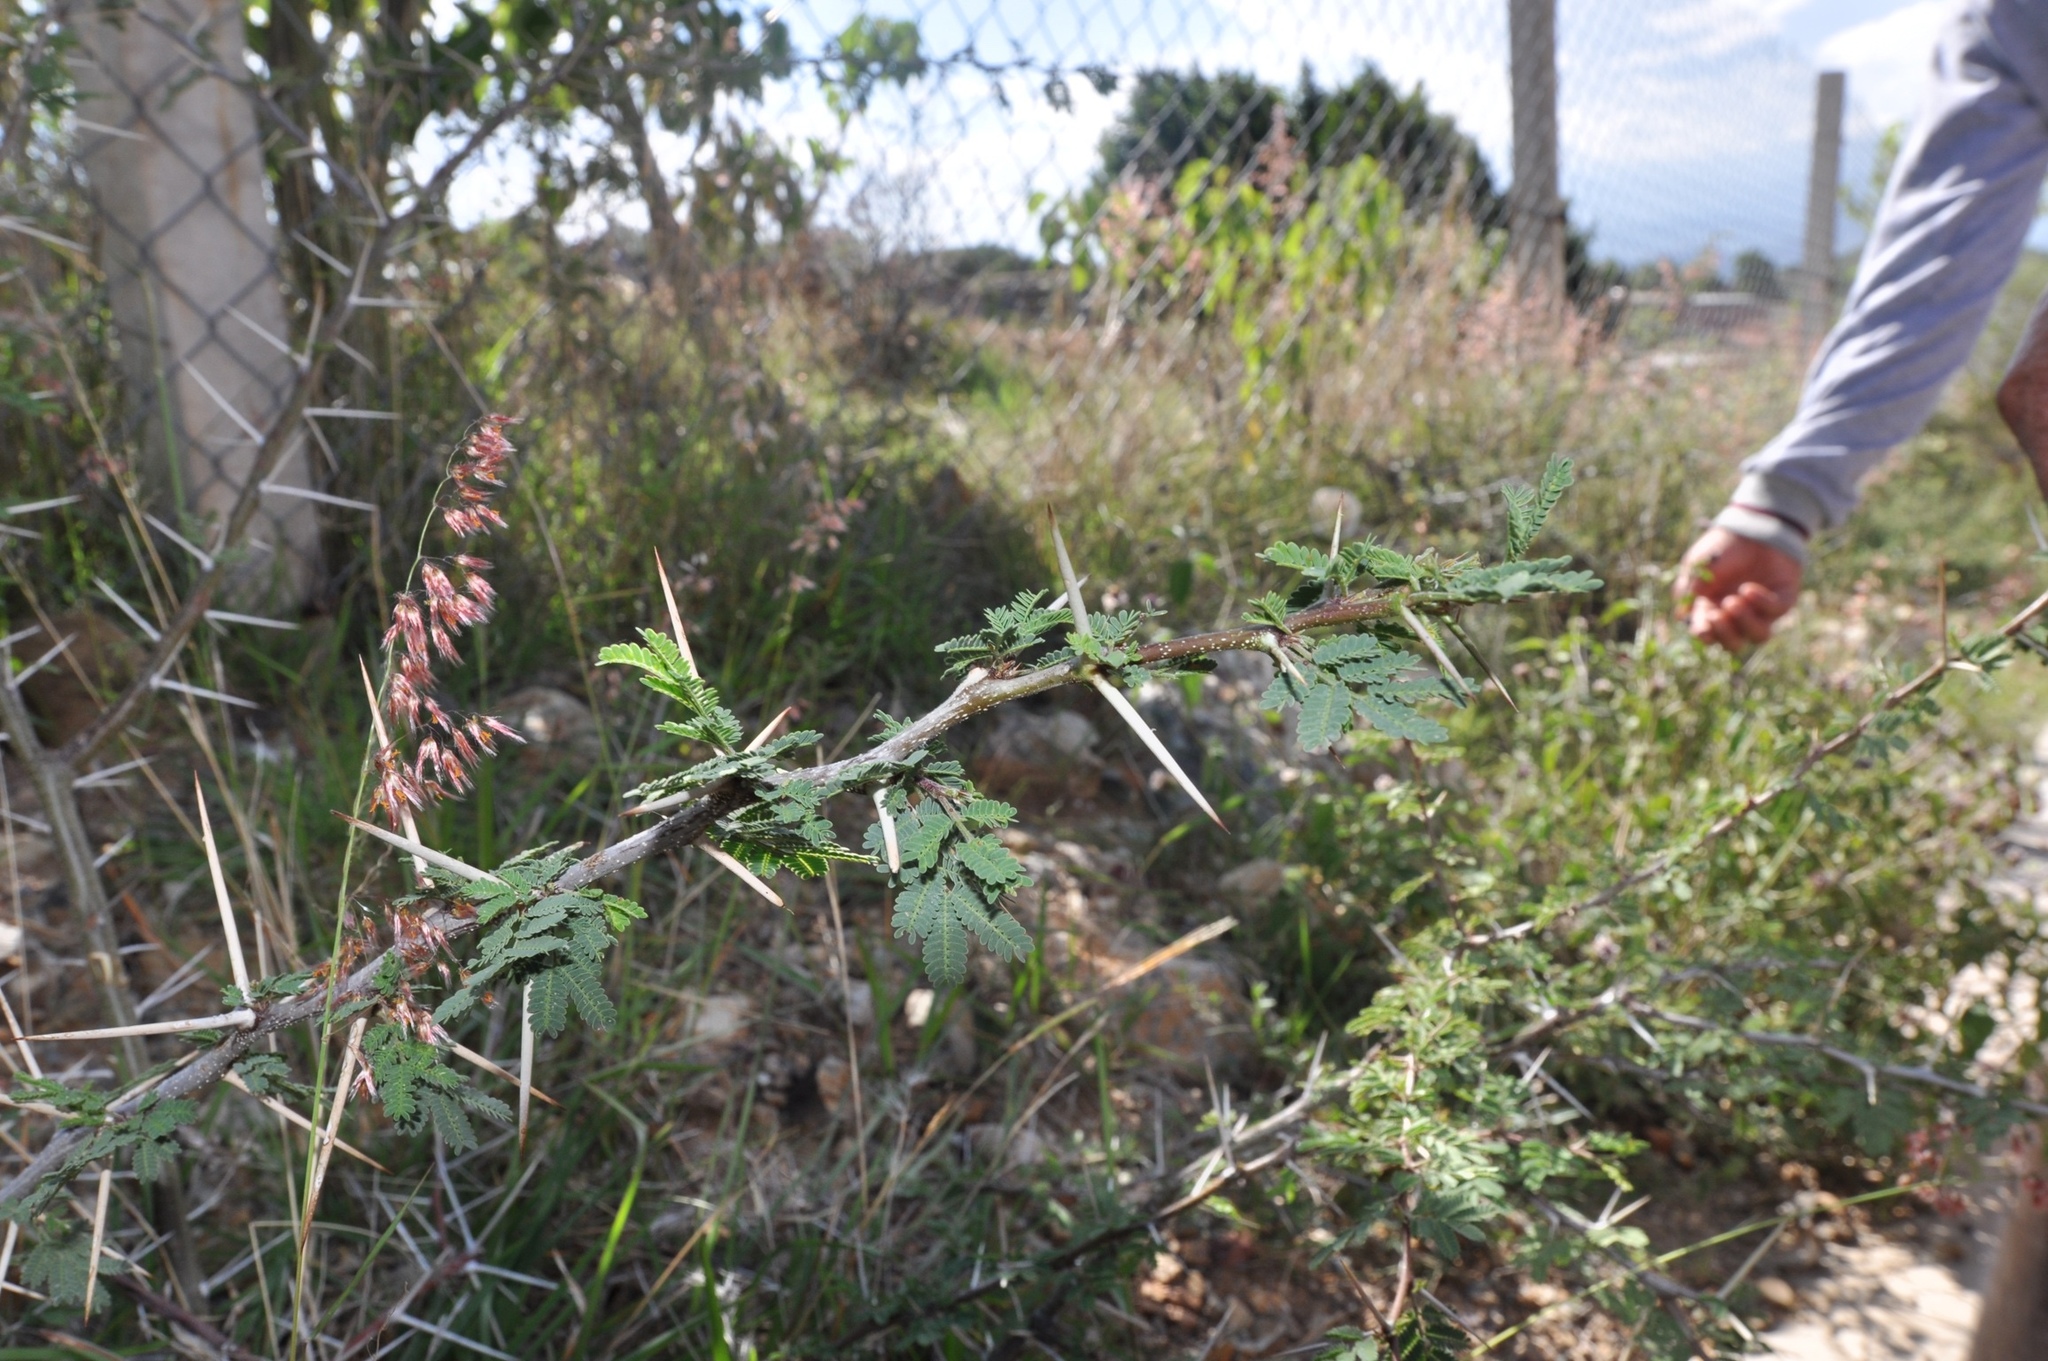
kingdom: Plantae
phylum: Tracheophyta
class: Magnoliopsida
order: Fabales
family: Fabaceae
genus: Vachellia
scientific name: Vachellia farnesiana
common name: Sweet acacia
